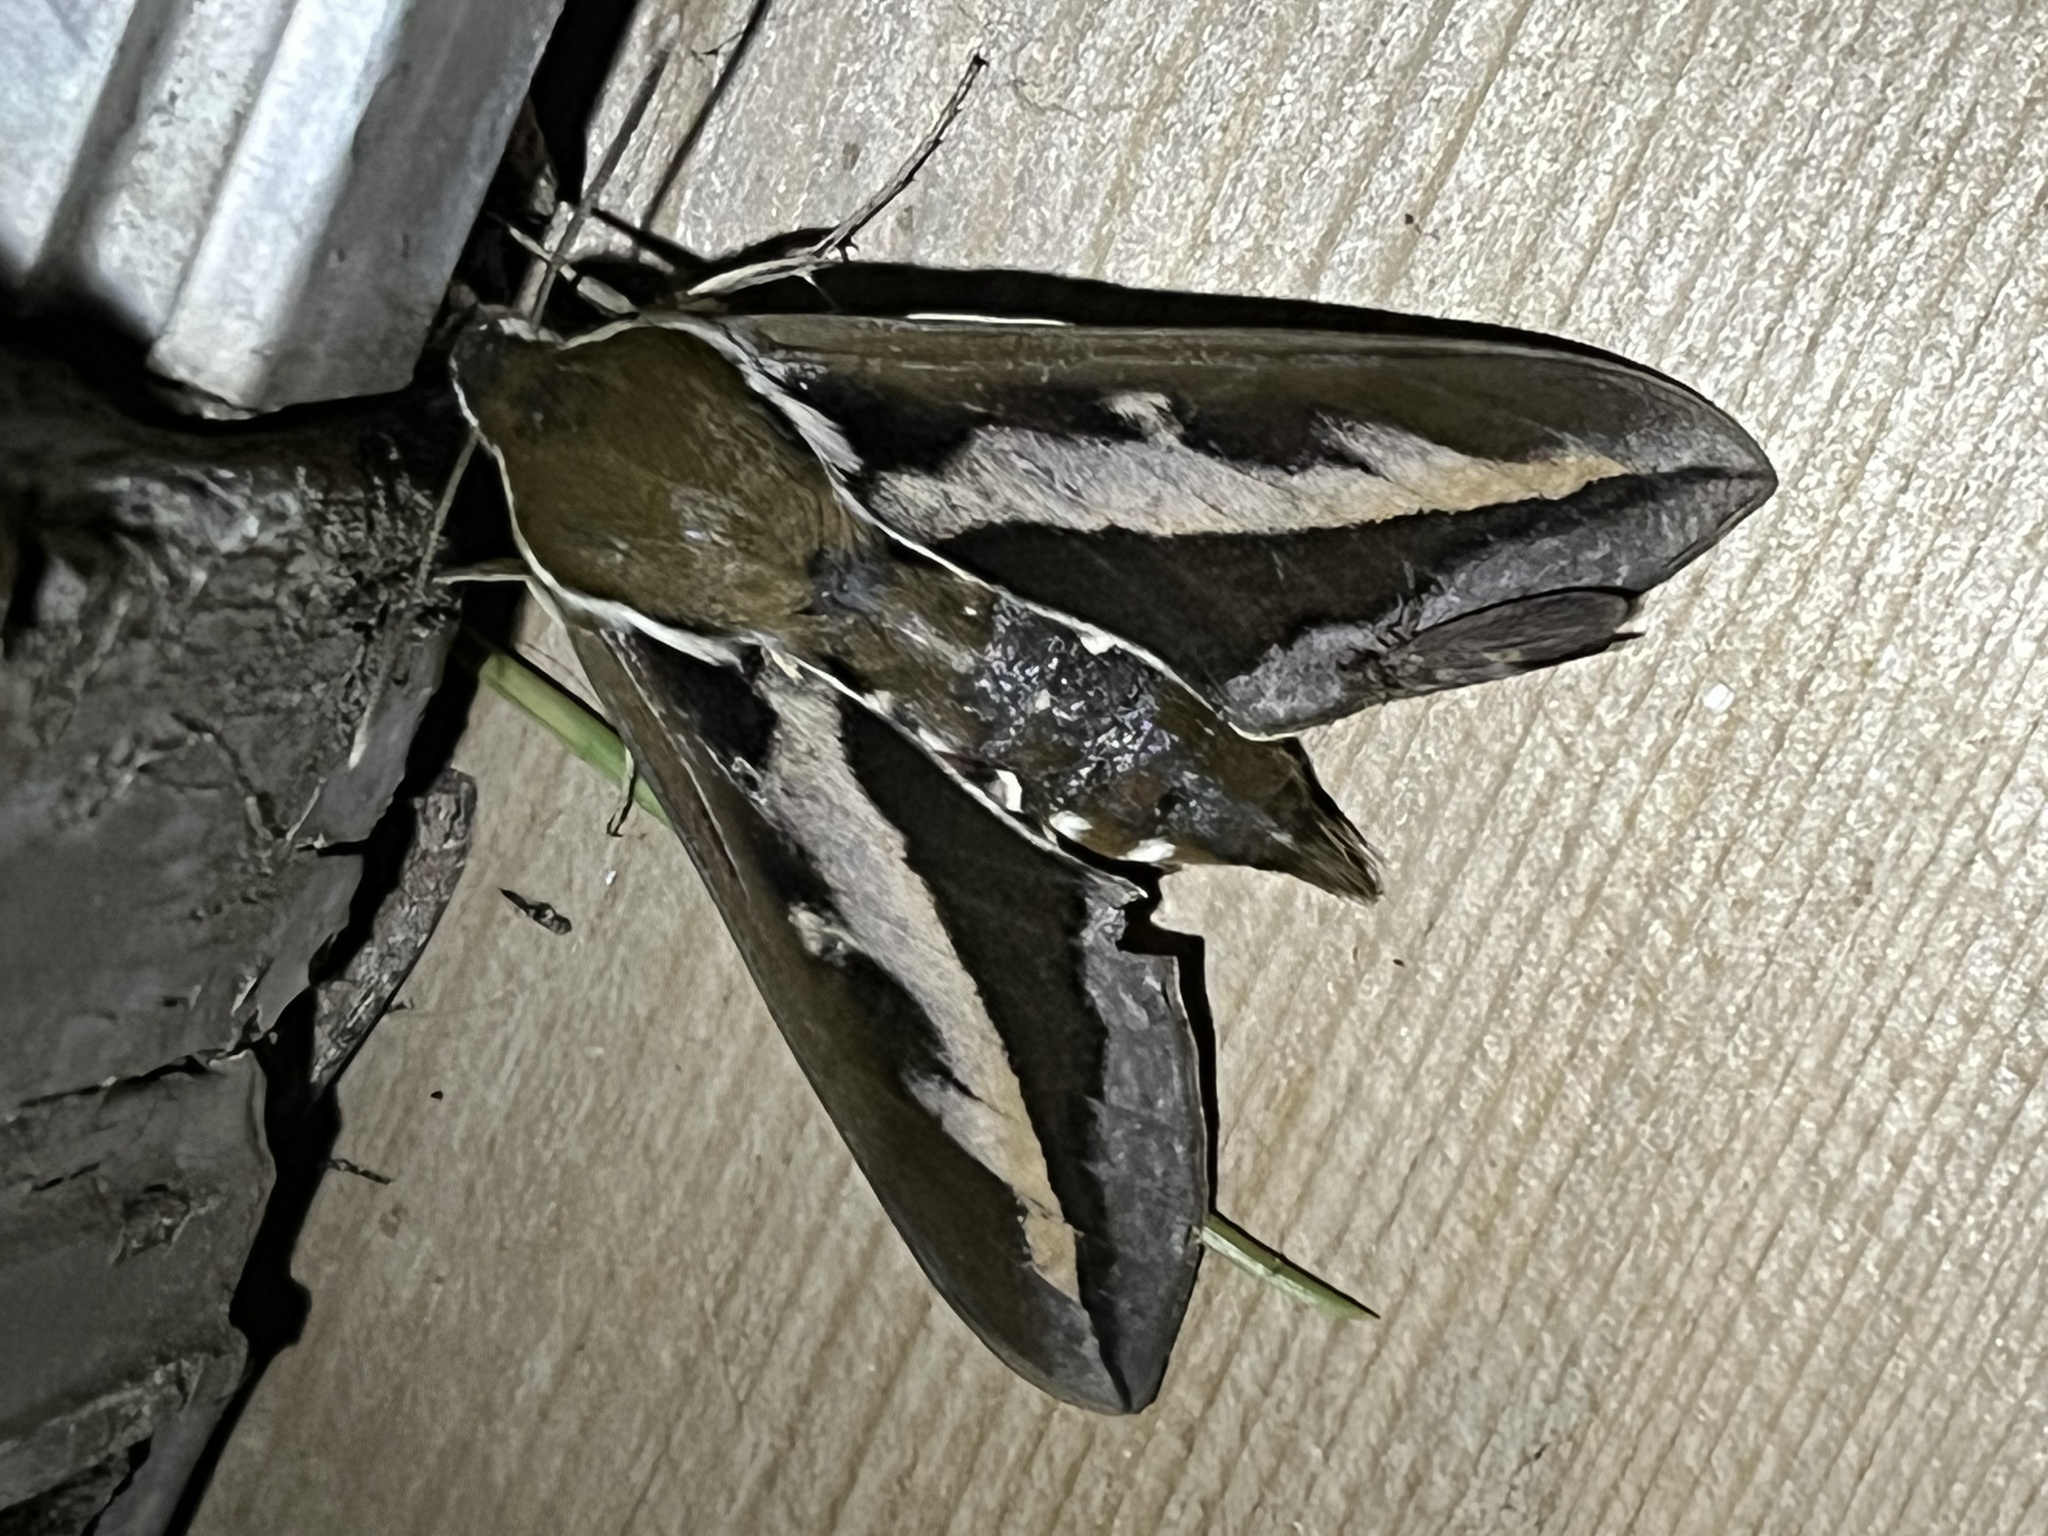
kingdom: Animalia
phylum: Arthropoda
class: Insecta
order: Lepidoptera
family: Sphingidae
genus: Hyles
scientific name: Hyles gallii
